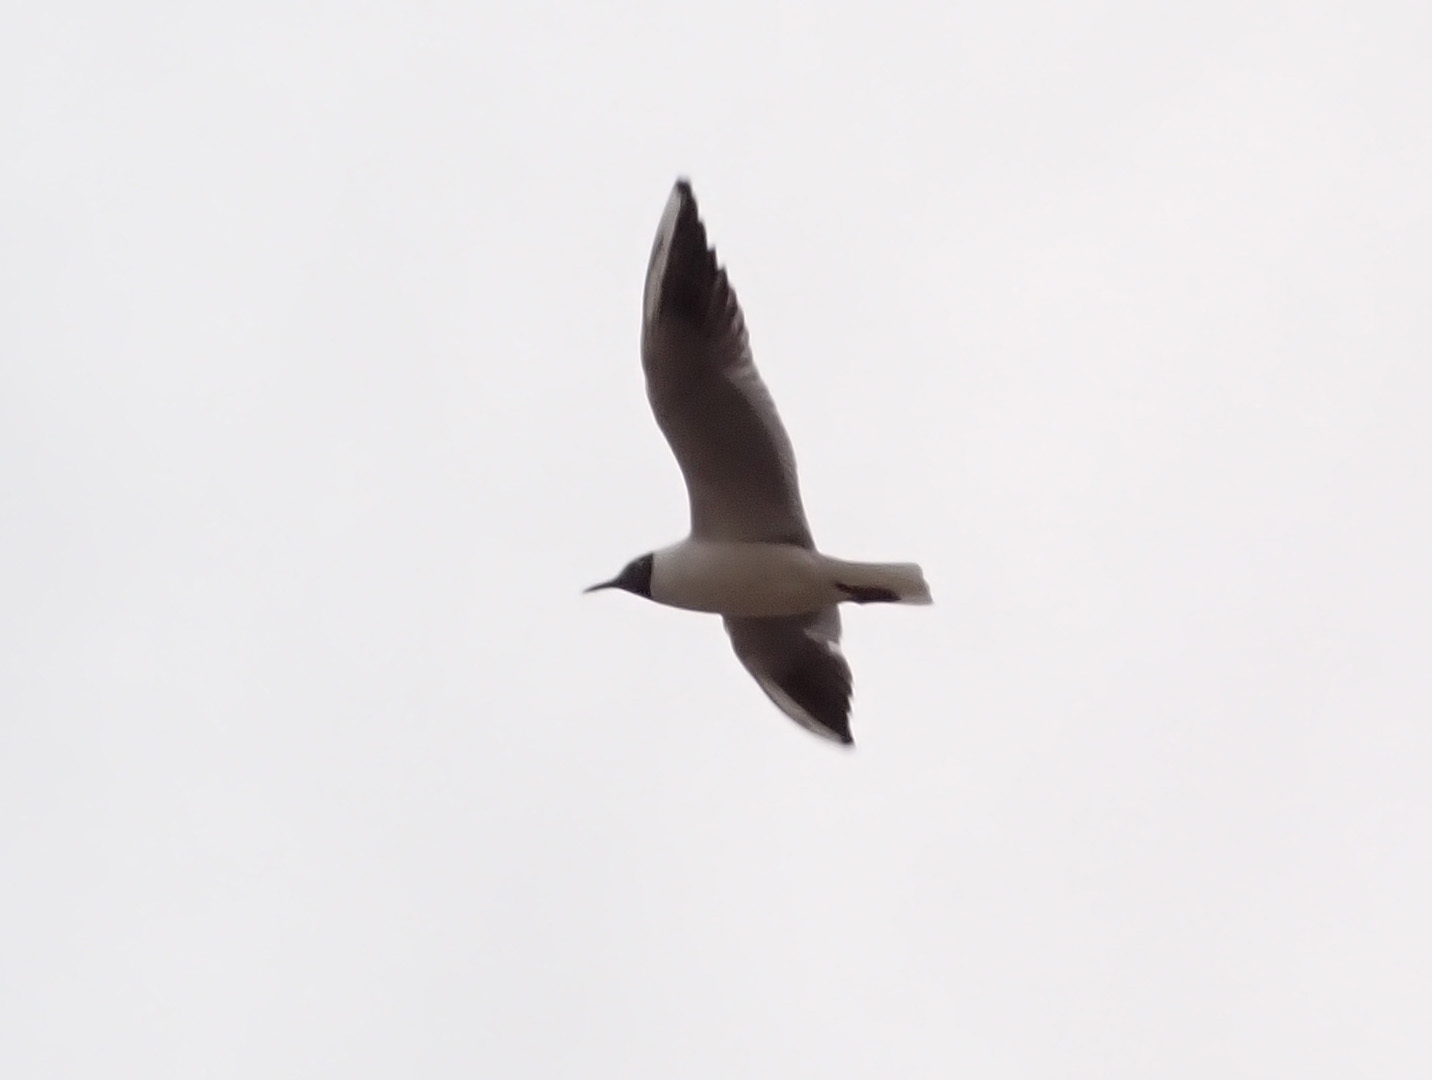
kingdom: Animalia
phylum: Chordata
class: Aves
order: Charadriiformes
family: Laridae
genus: Chroicocephalus
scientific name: Chroicocephalus ridibundus
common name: Black-headed gull
